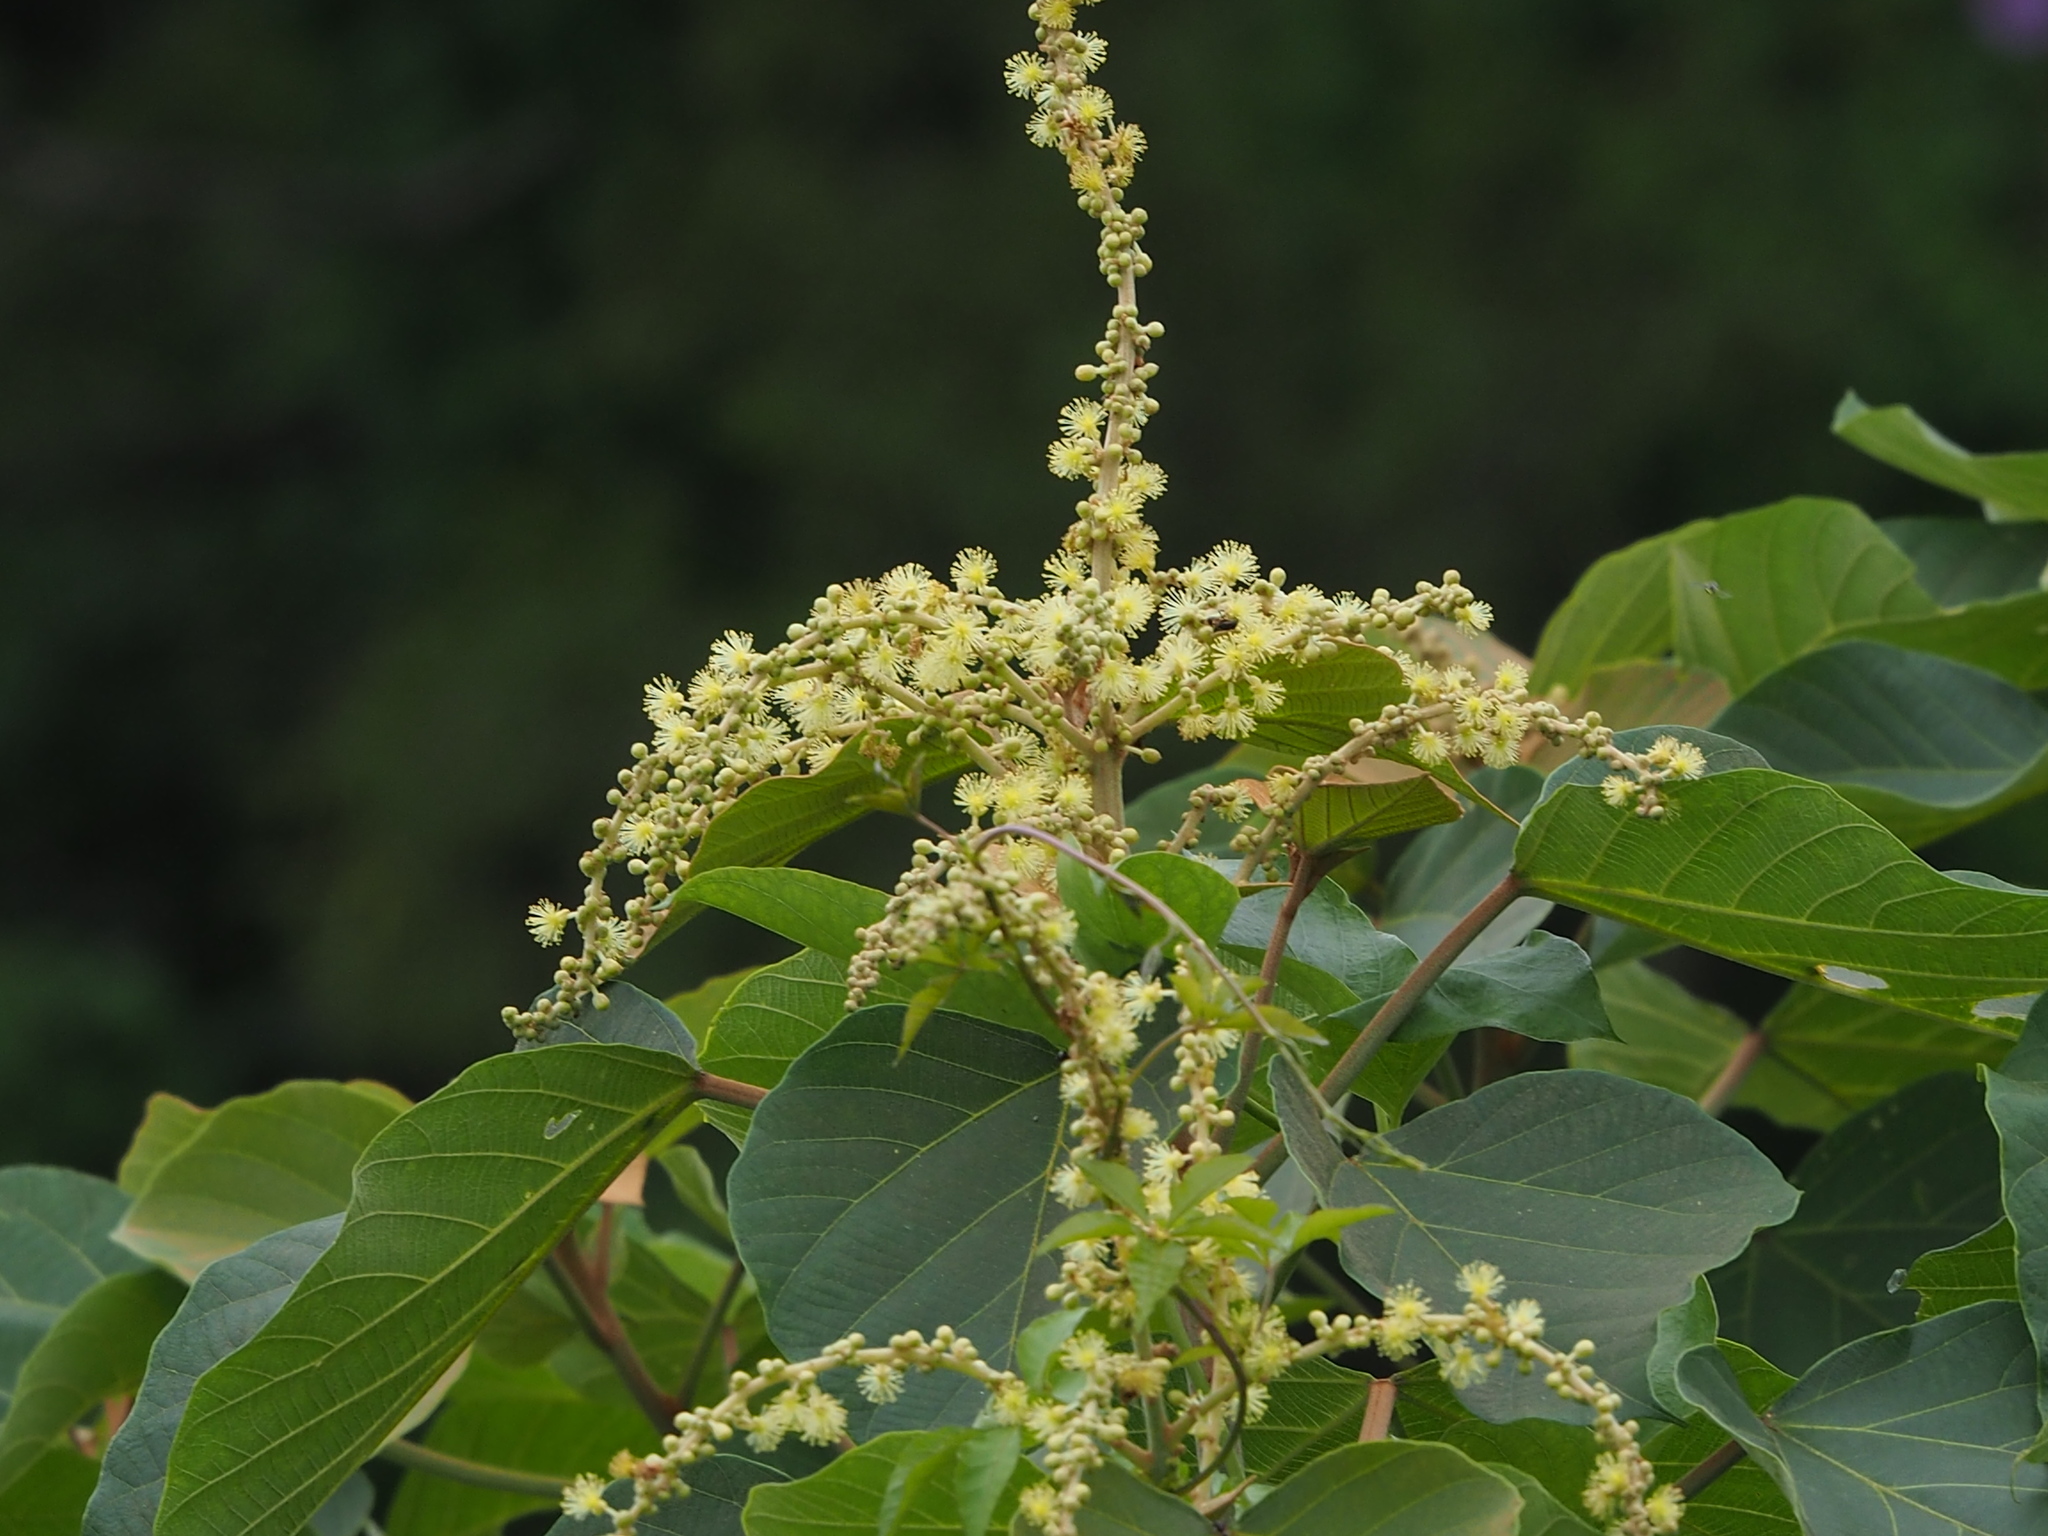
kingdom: Plantae
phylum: Tracheophyta
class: Magnoliopsida
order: Malpighiales
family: Euphorbiaceae
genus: Mallotus
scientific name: Mallotus japonicus
